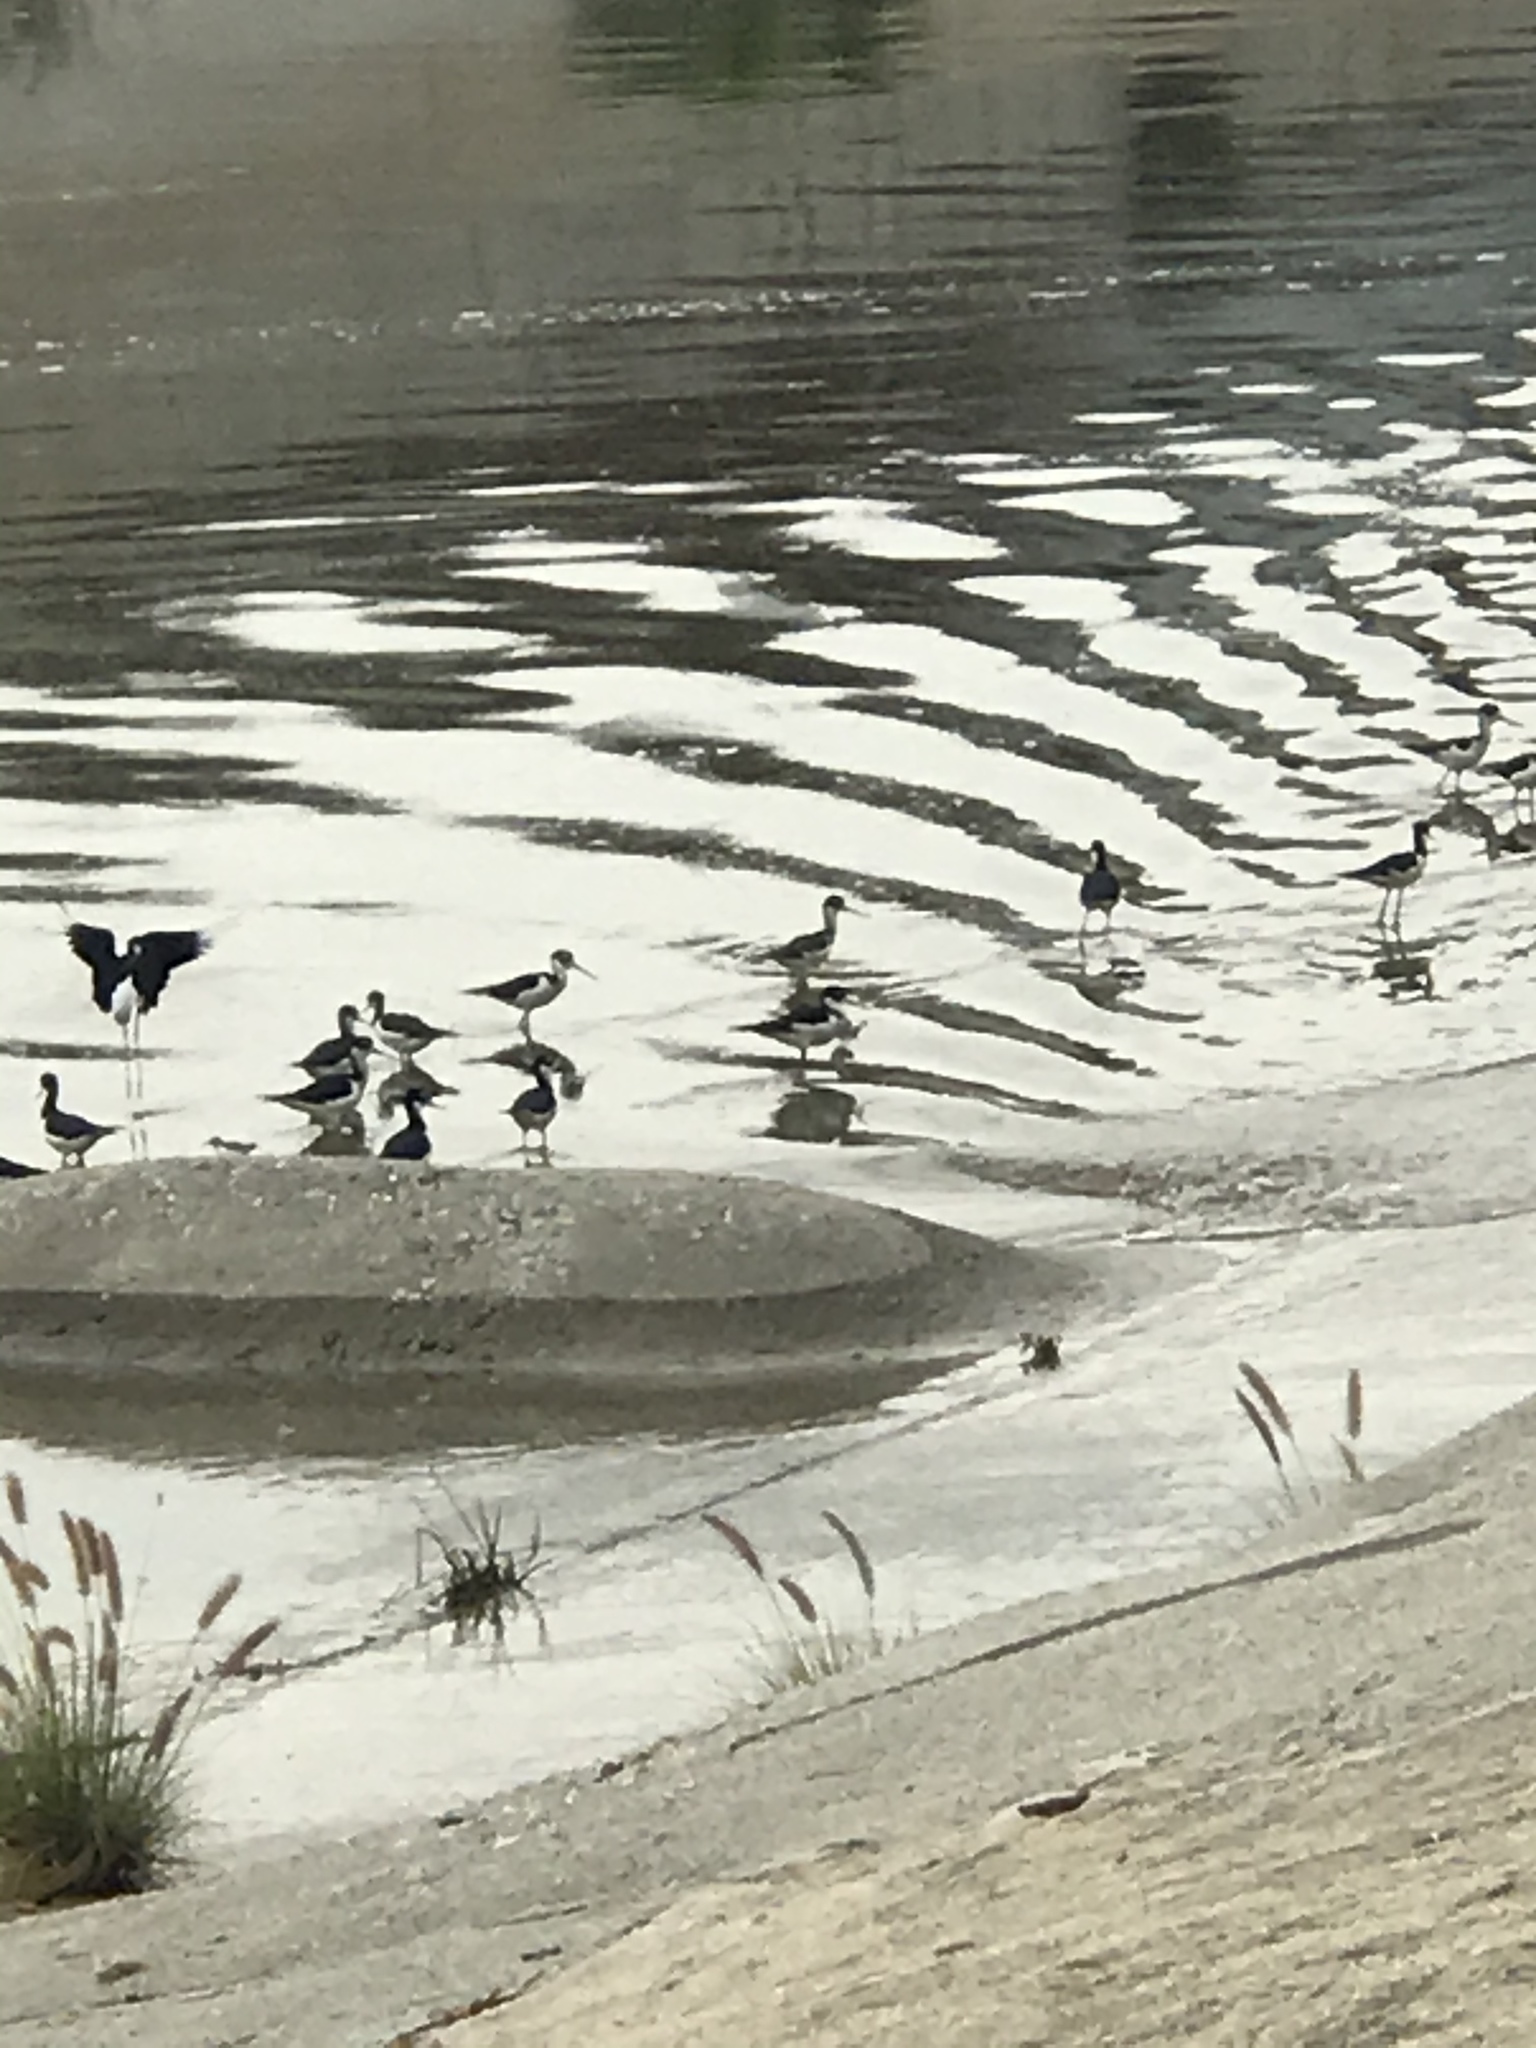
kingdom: Animalia
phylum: Chordata
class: Aves
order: Charadriiformes
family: Recurvirostridae
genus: Himantopus
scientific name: Himantopus mexicanus
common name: Black-necked stilt
